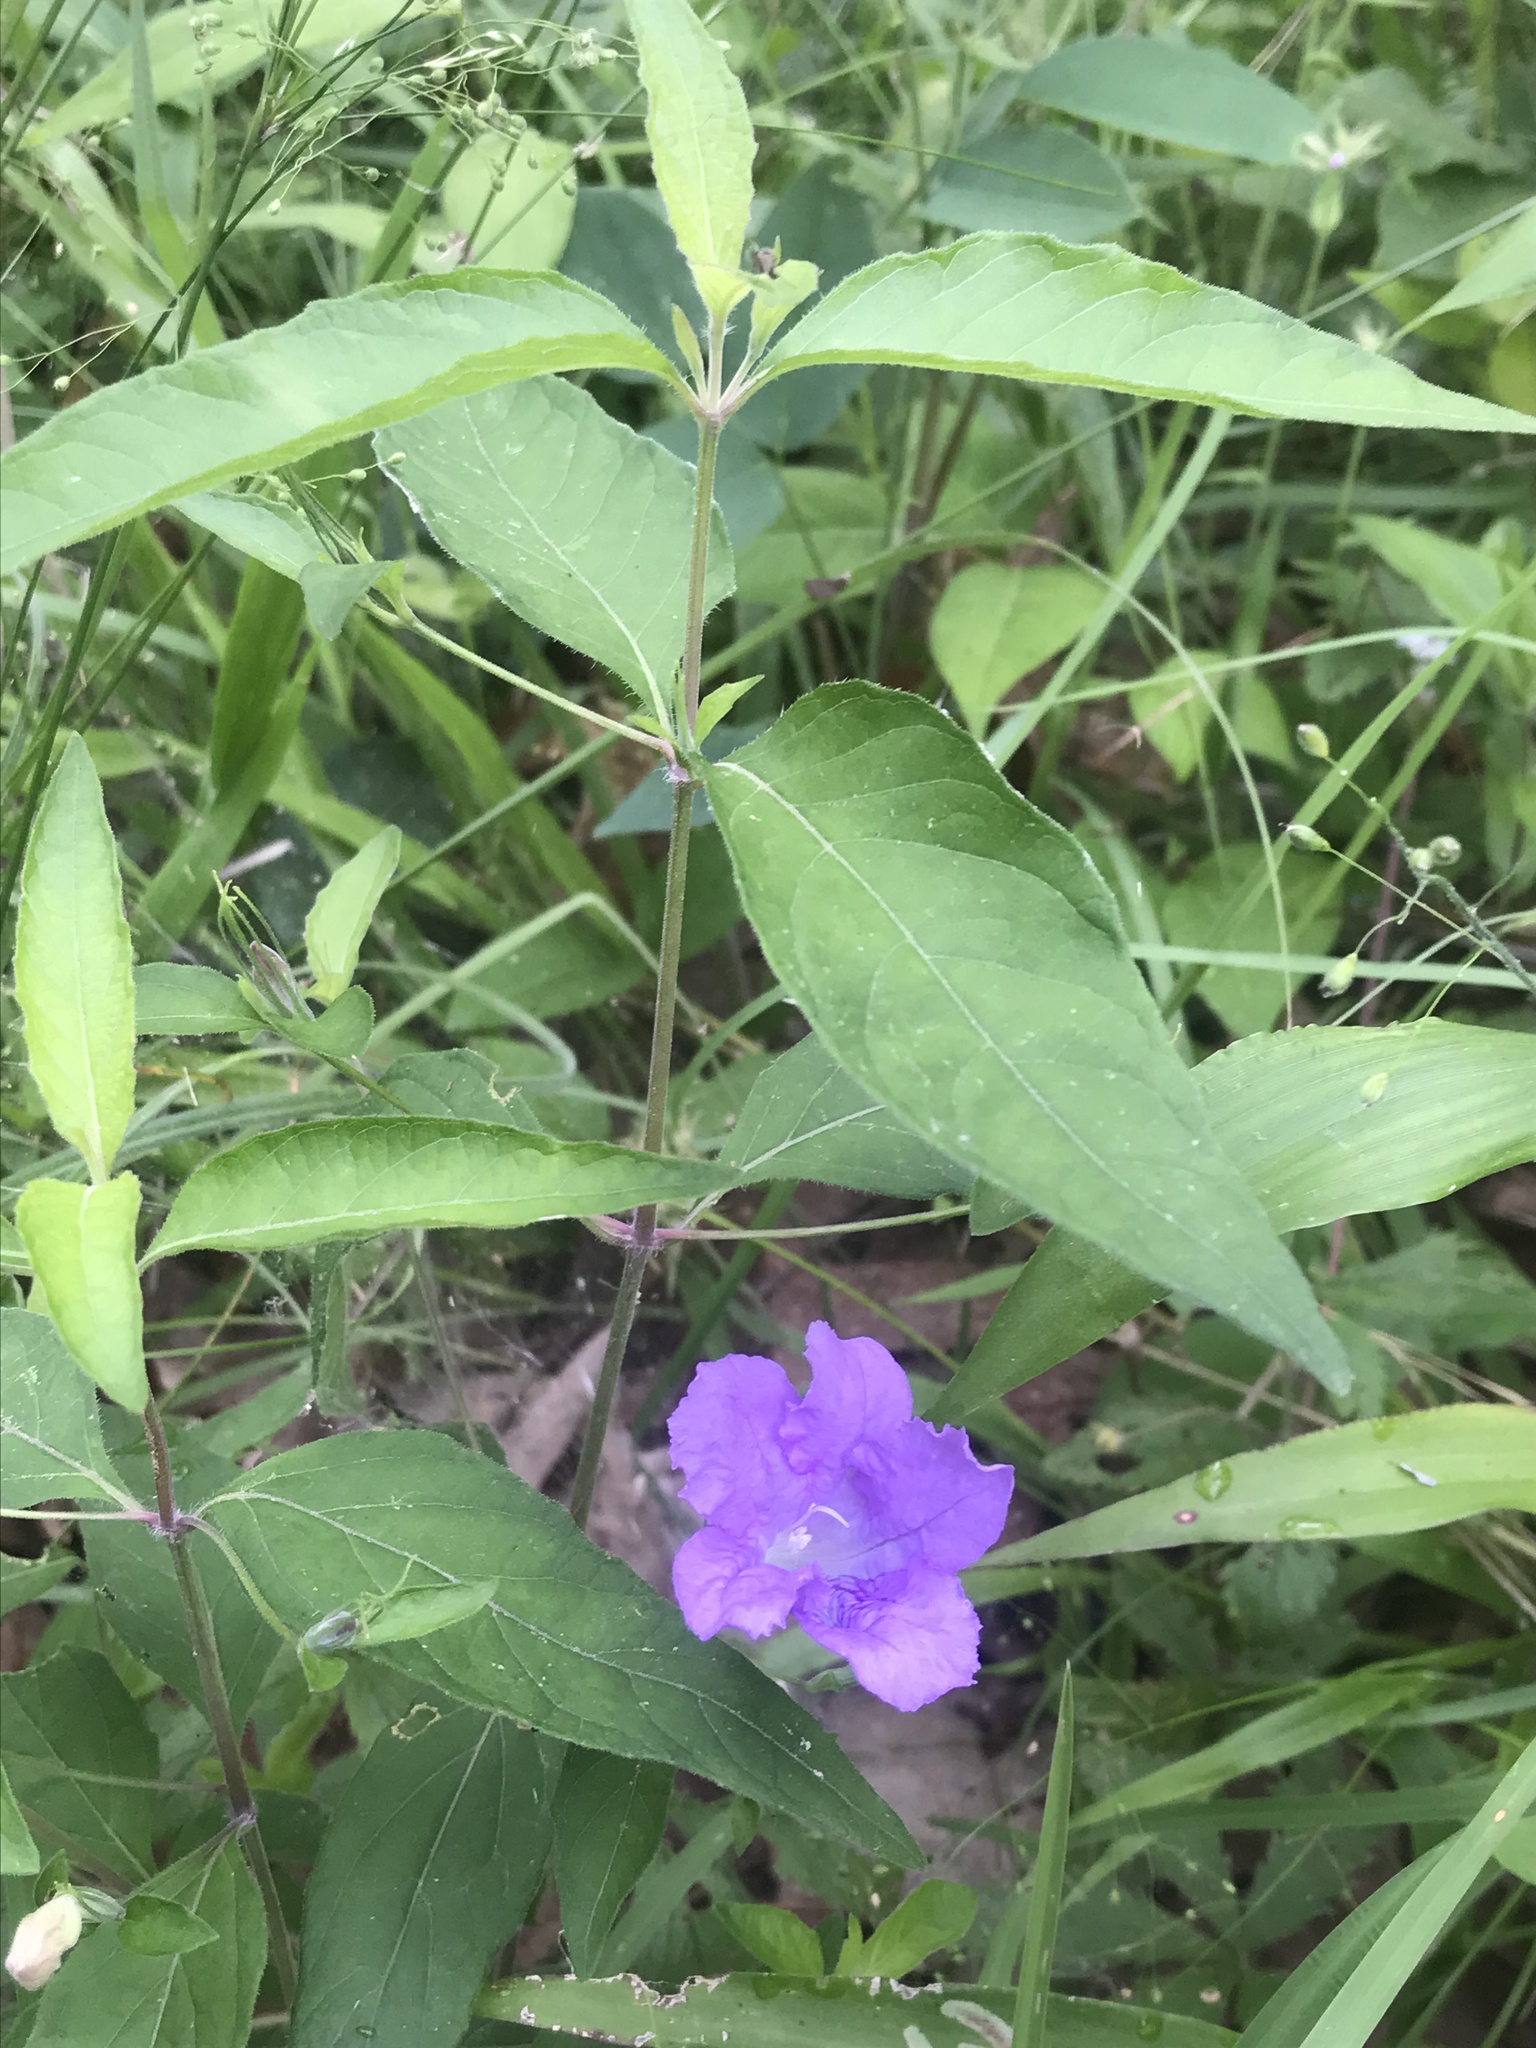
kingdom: Plantae
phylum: Tracheophyta
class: Magnoliopsida
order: Lamiales
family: Acanthaceae
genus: Ruellia
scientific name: Ruellia pedunculata
